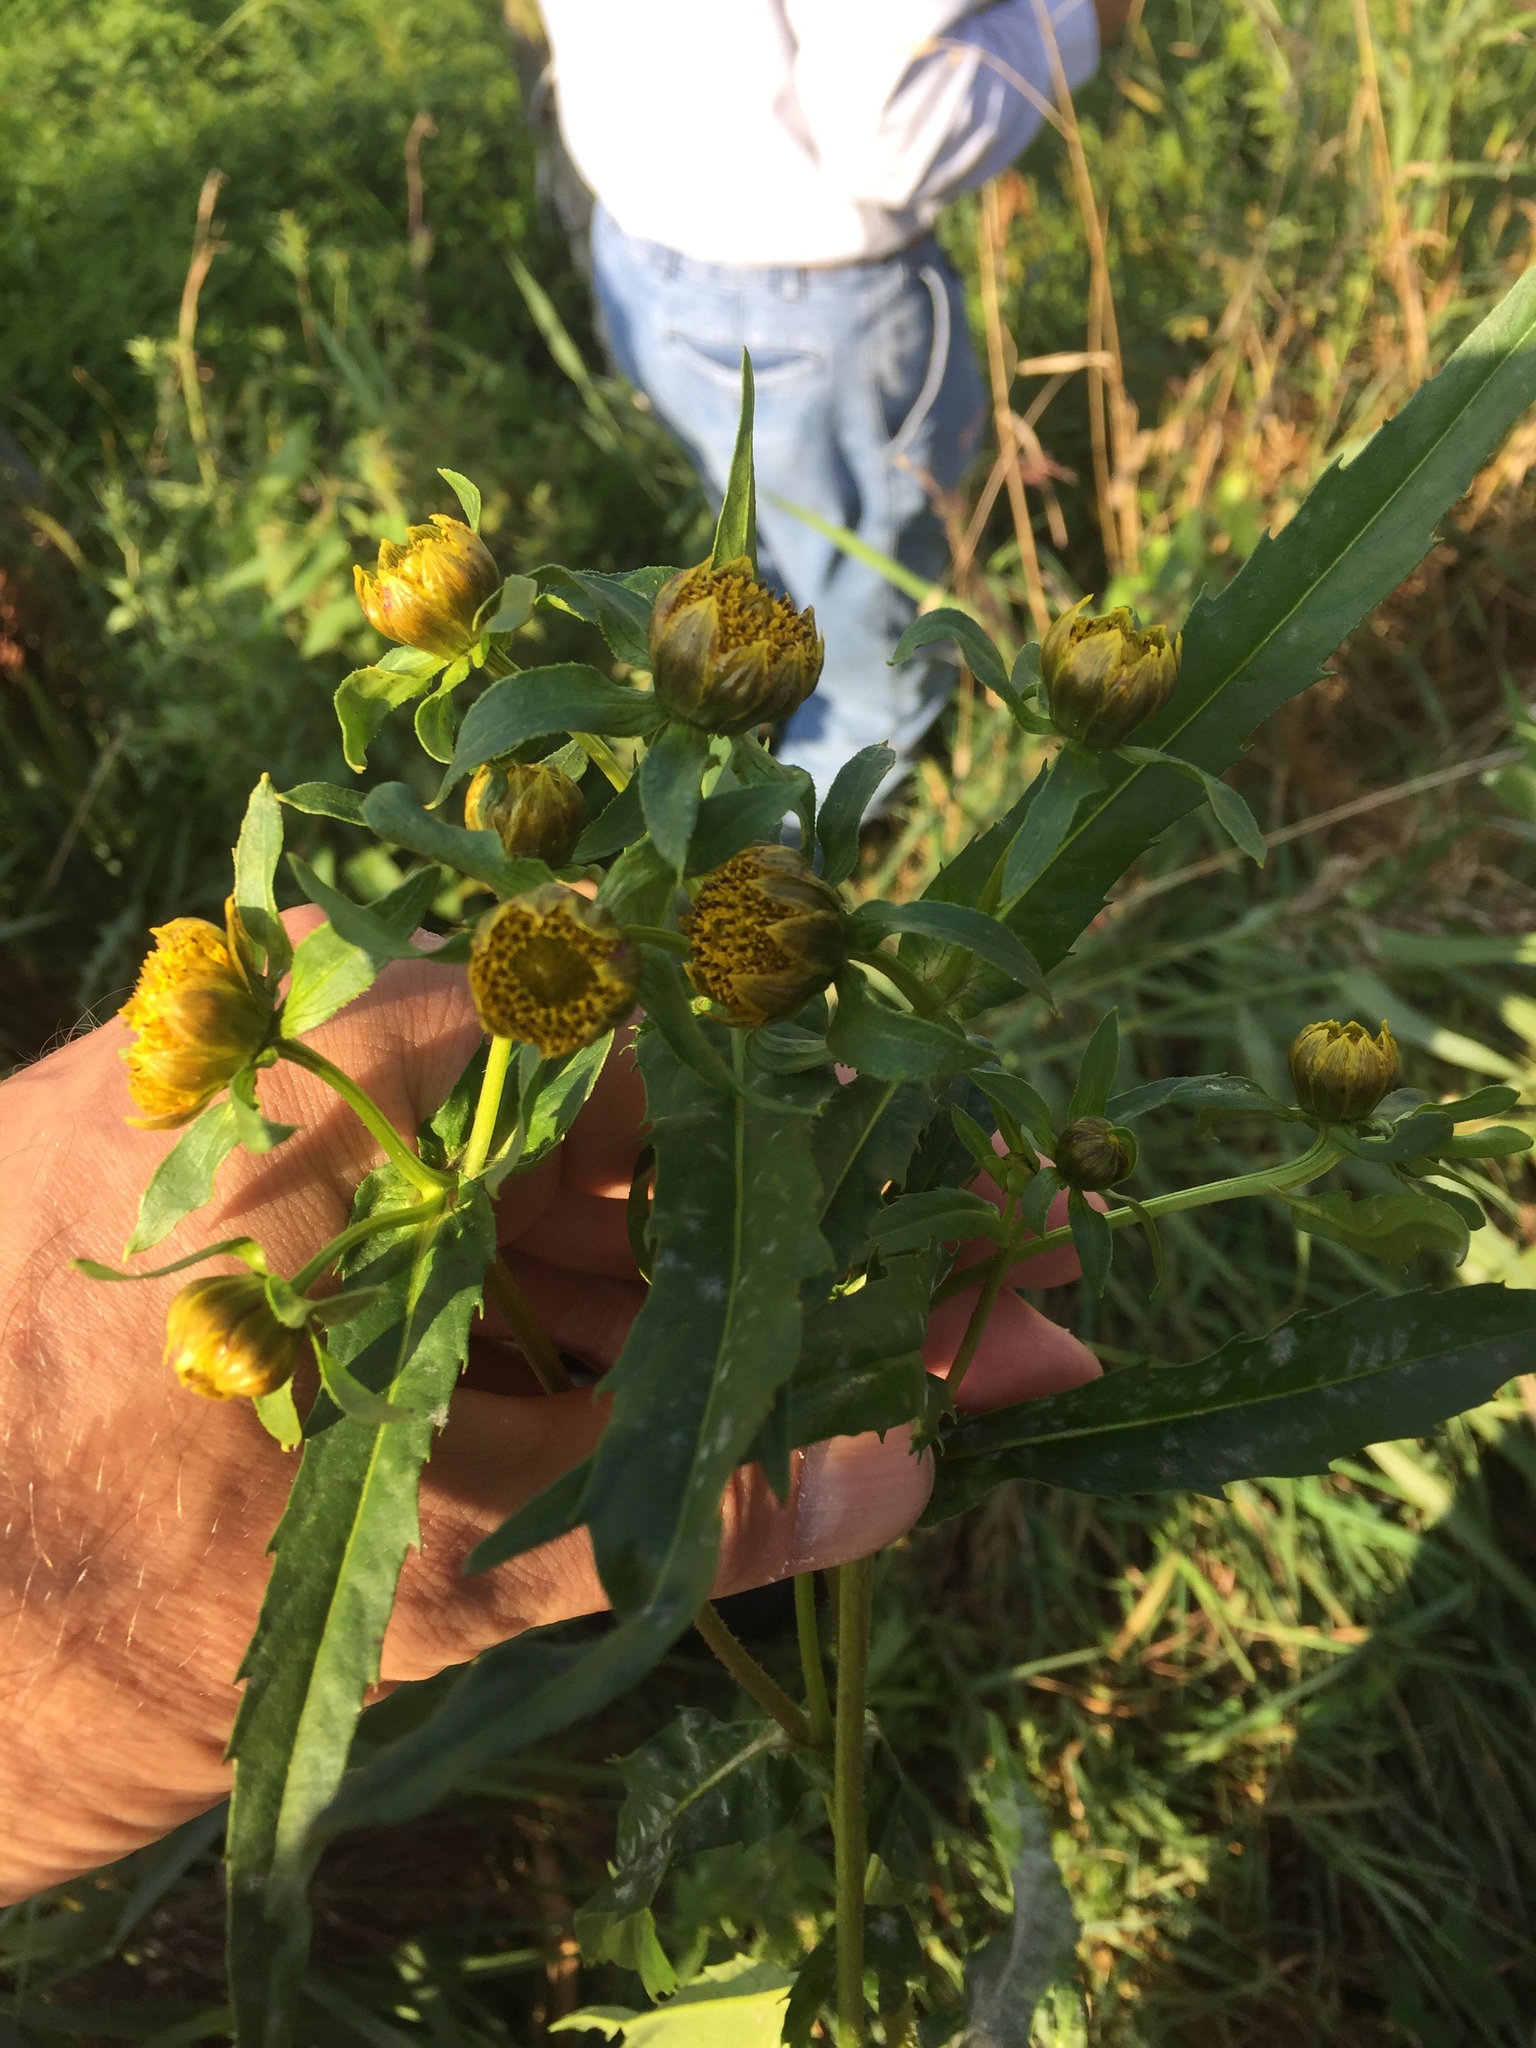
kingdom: Plantae
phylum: Tracheophyta
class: Magnoliopsida
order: Asterales
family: Asteraceae
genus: Bidens
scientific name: Bidens cernua
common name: Nodding bur-marigold
